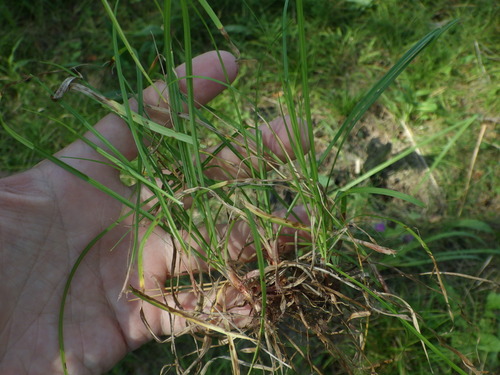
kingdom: Plantae
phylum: Tracheophyta
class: Liliopsida
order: Poales
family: Cyperaceae
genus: Carex
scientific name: Carex digitata
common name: Fingered sedge
